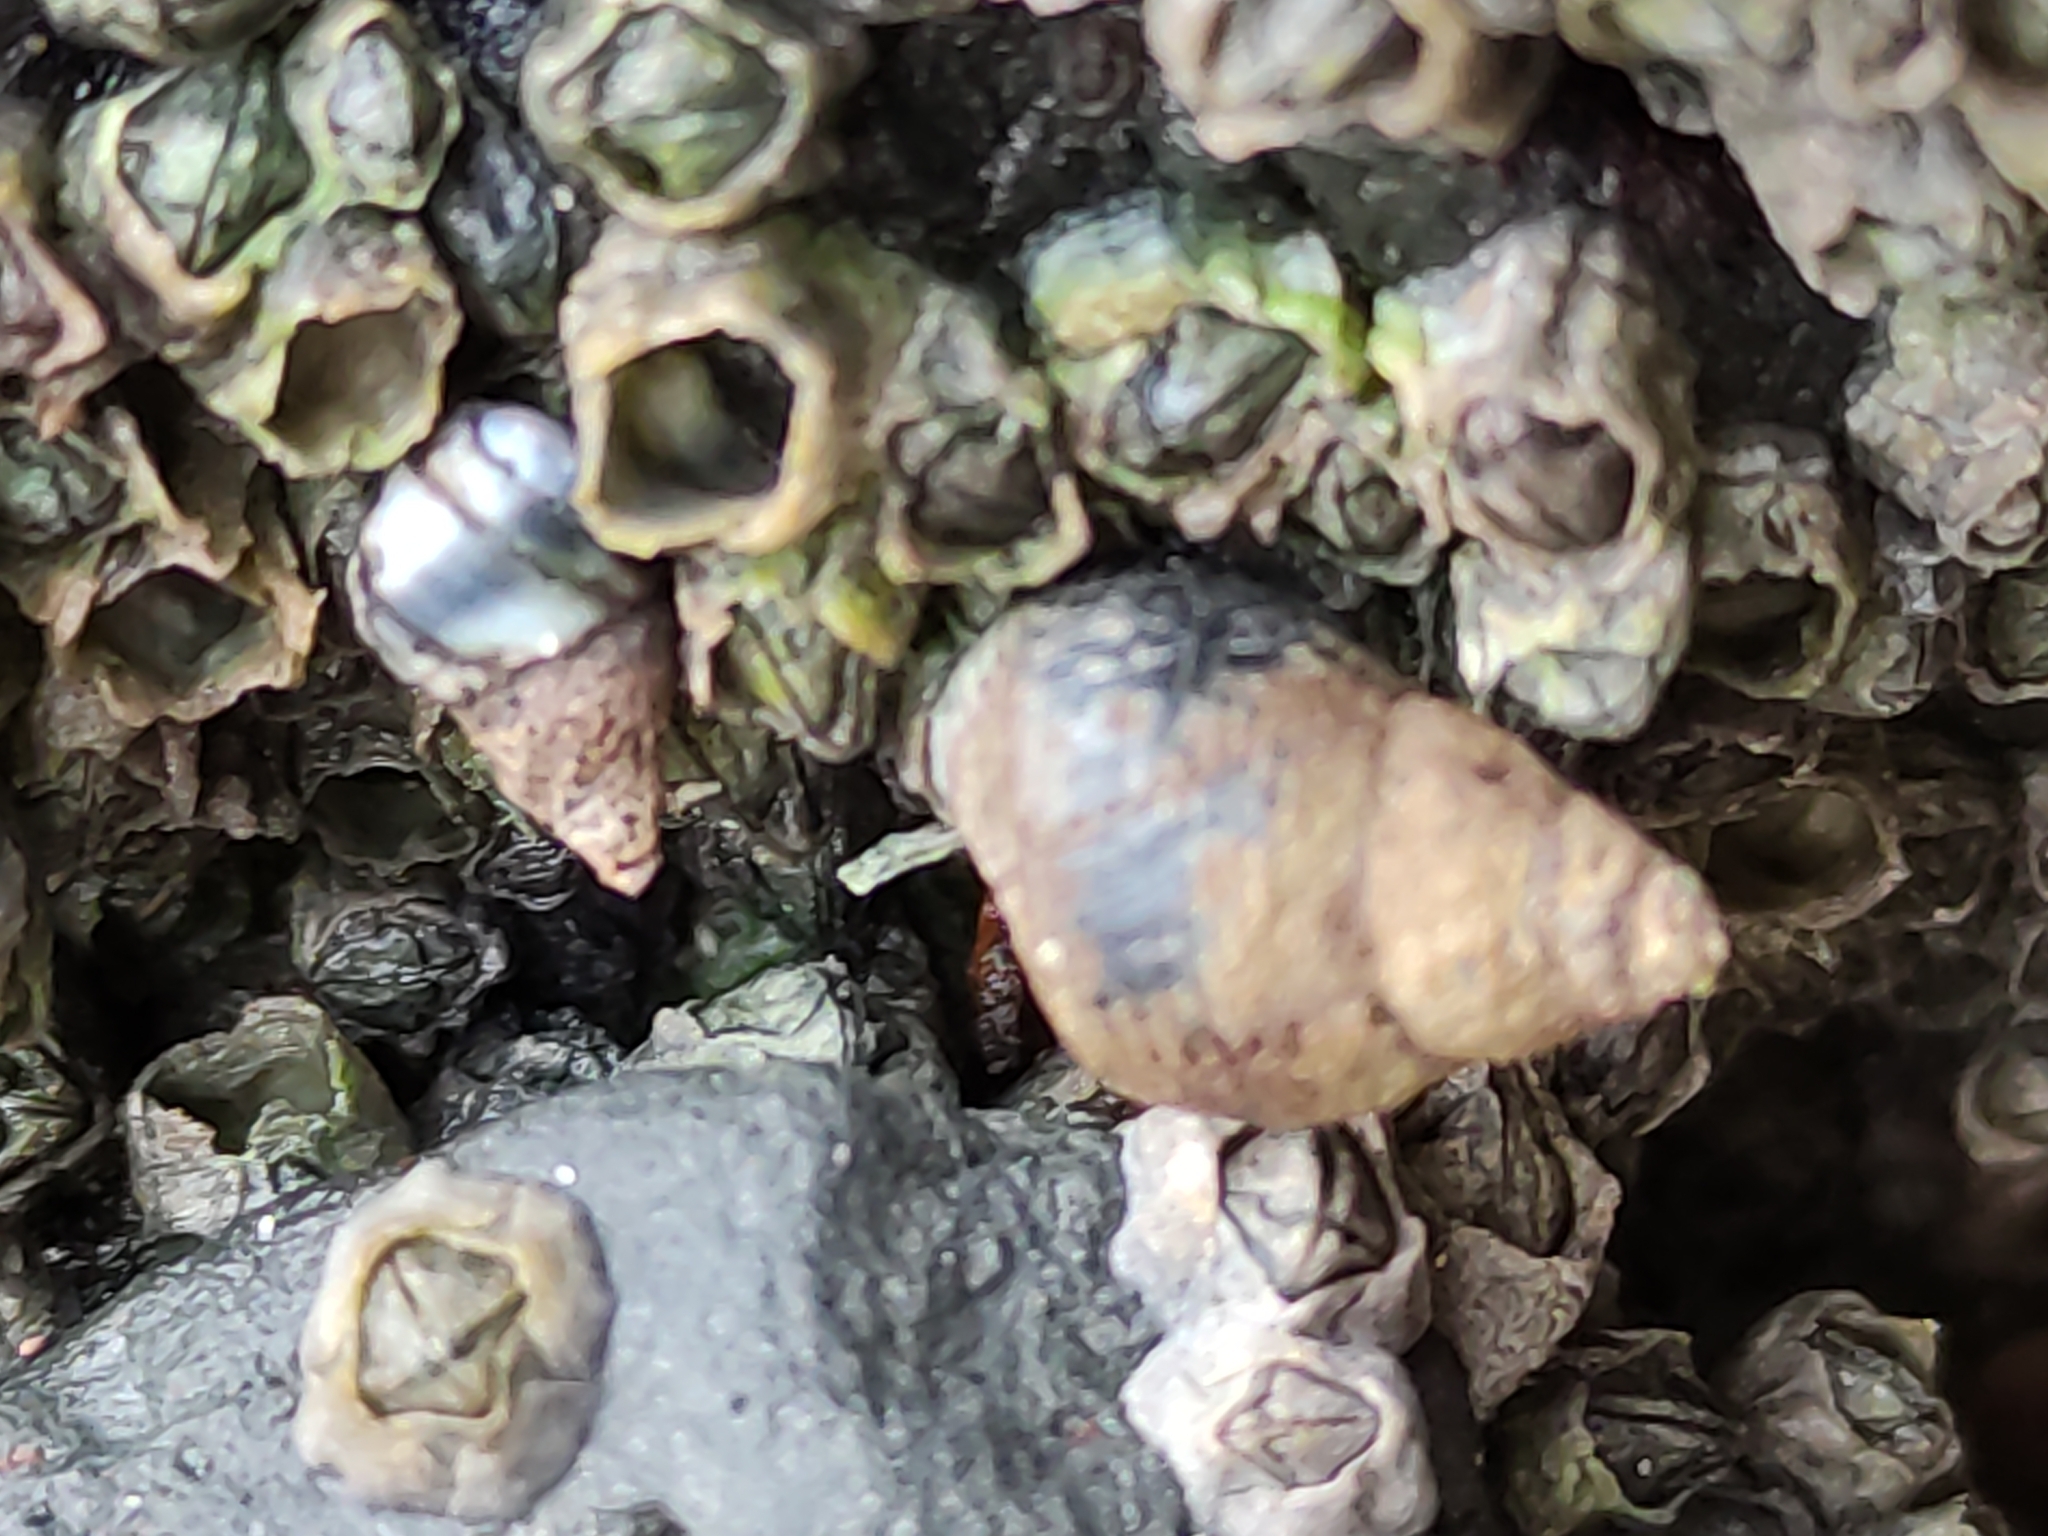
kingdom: Animalia
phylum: Mollusca
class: Gastropoda
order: Littorinimorpha
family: Littorinidae
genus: Austrolittorina
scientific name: Austrolittorina cincta
